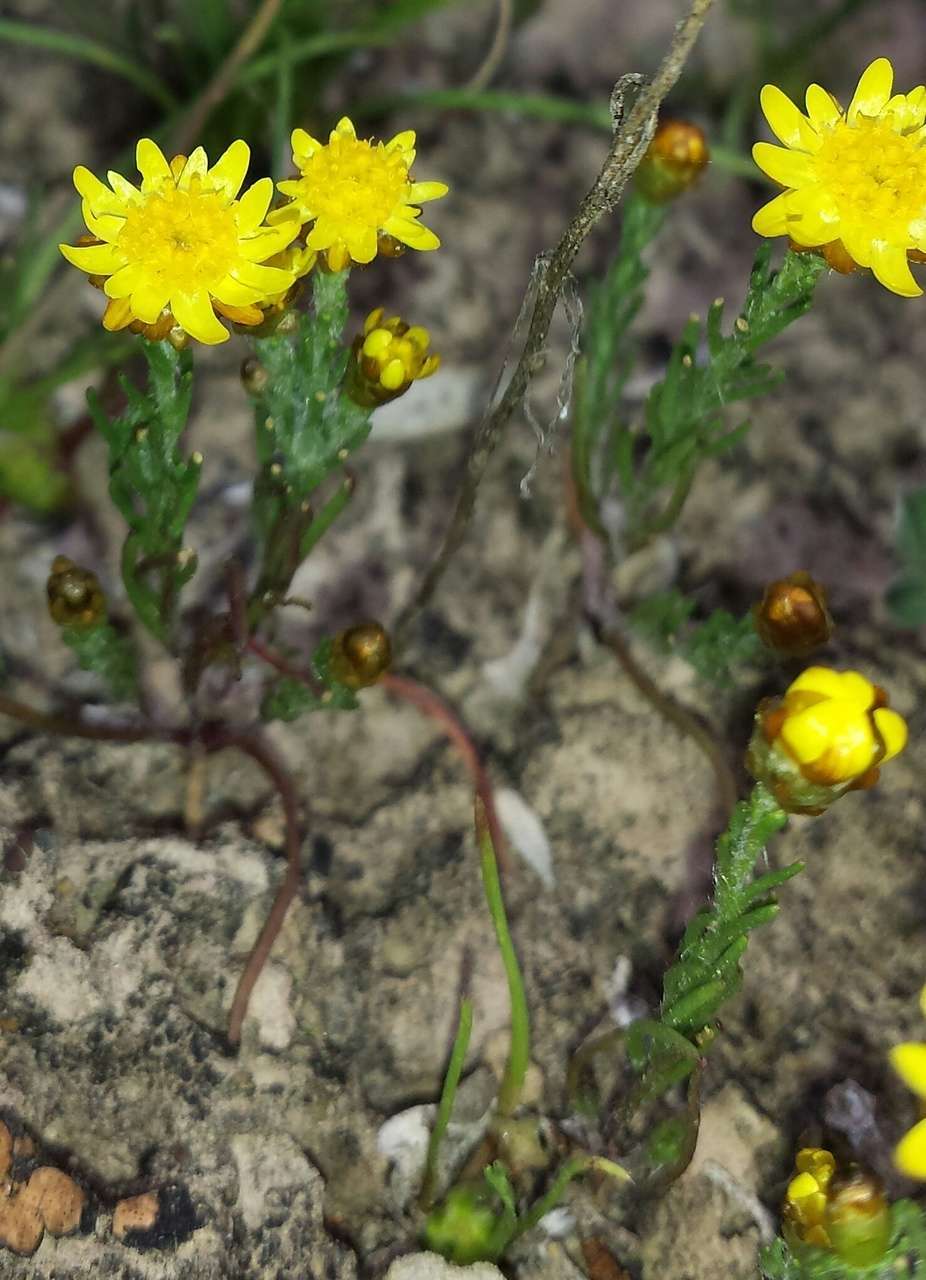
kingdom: Plantae
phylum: Tracheophyta
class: Magnoliopsida
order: Asterales
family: Asteraceae
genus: Hyalosperma
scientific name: Hyalosperma semisterile
